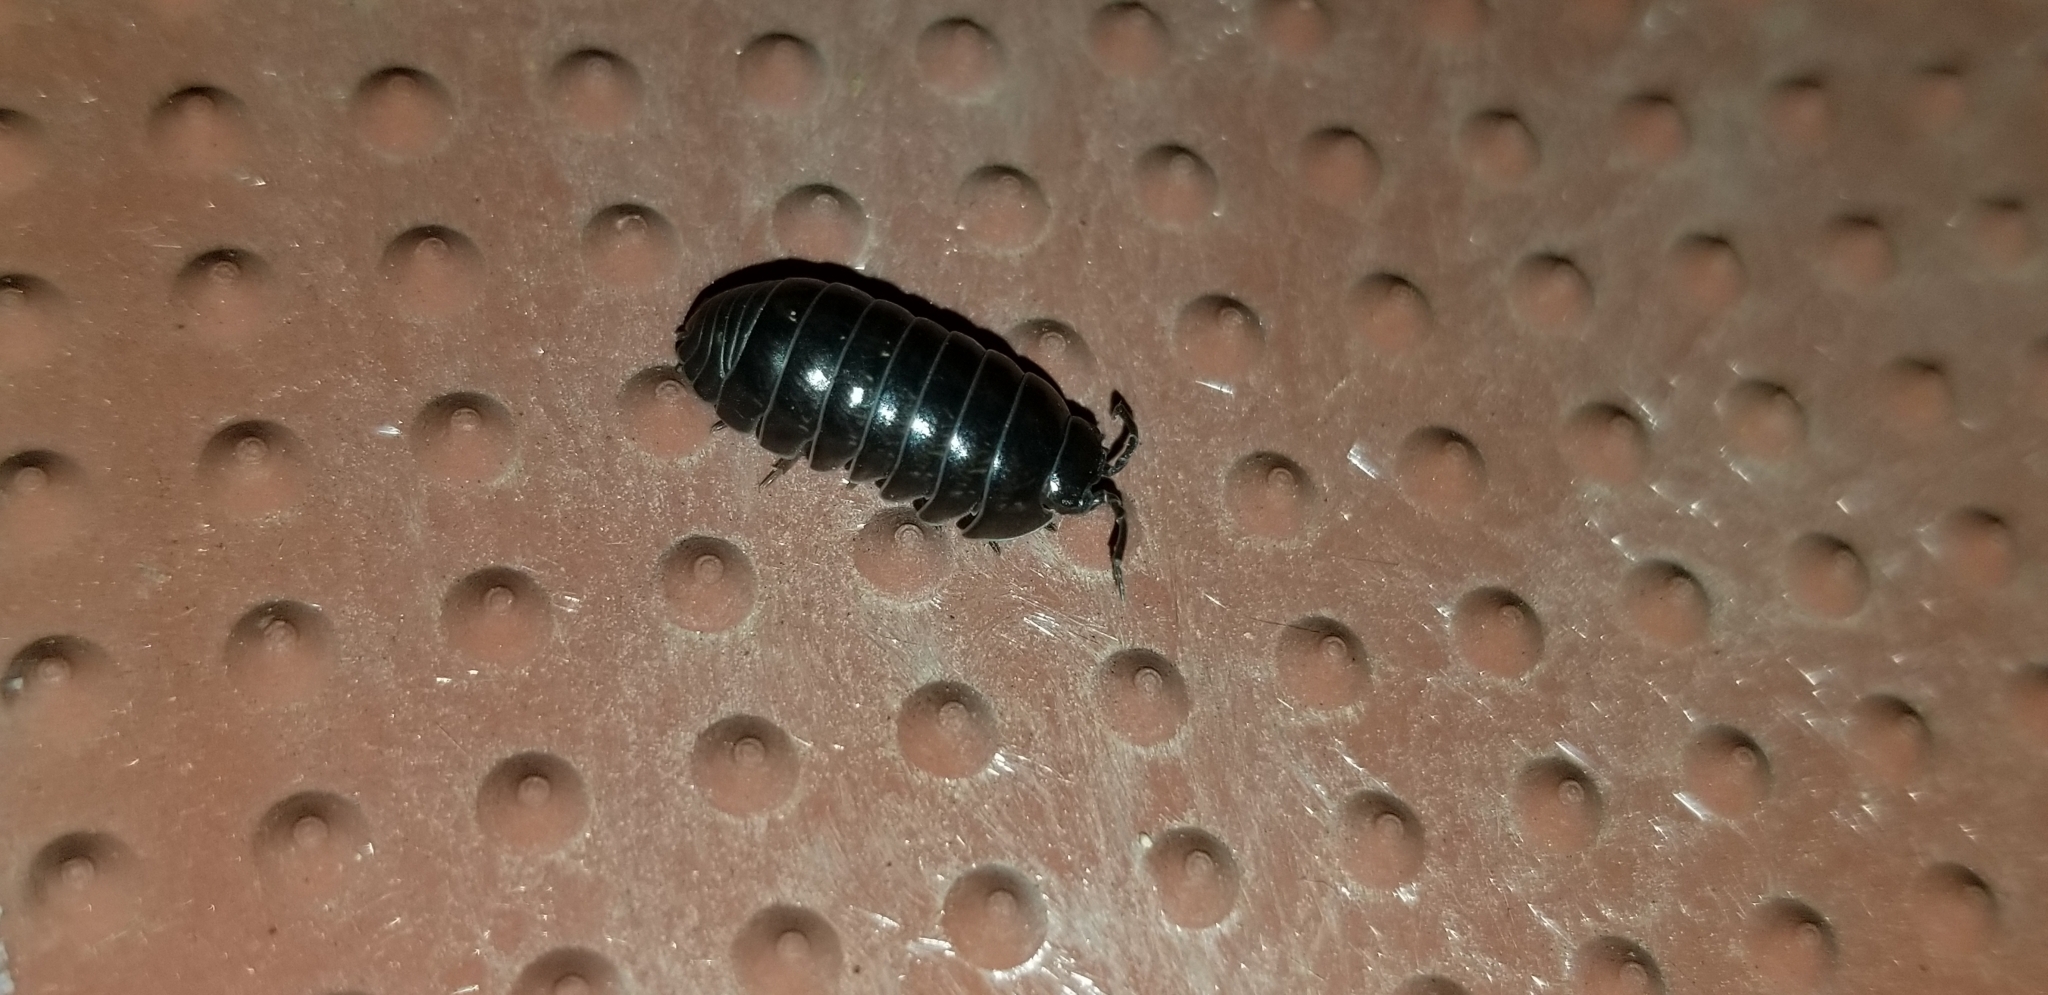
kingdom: Animalia
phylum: Arthropoda
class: Malacostraca
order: Isopoda
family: Armadillidiidae
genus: Armadillidium
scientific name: Armadillidium vulgare
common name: Common pill woodlouse
